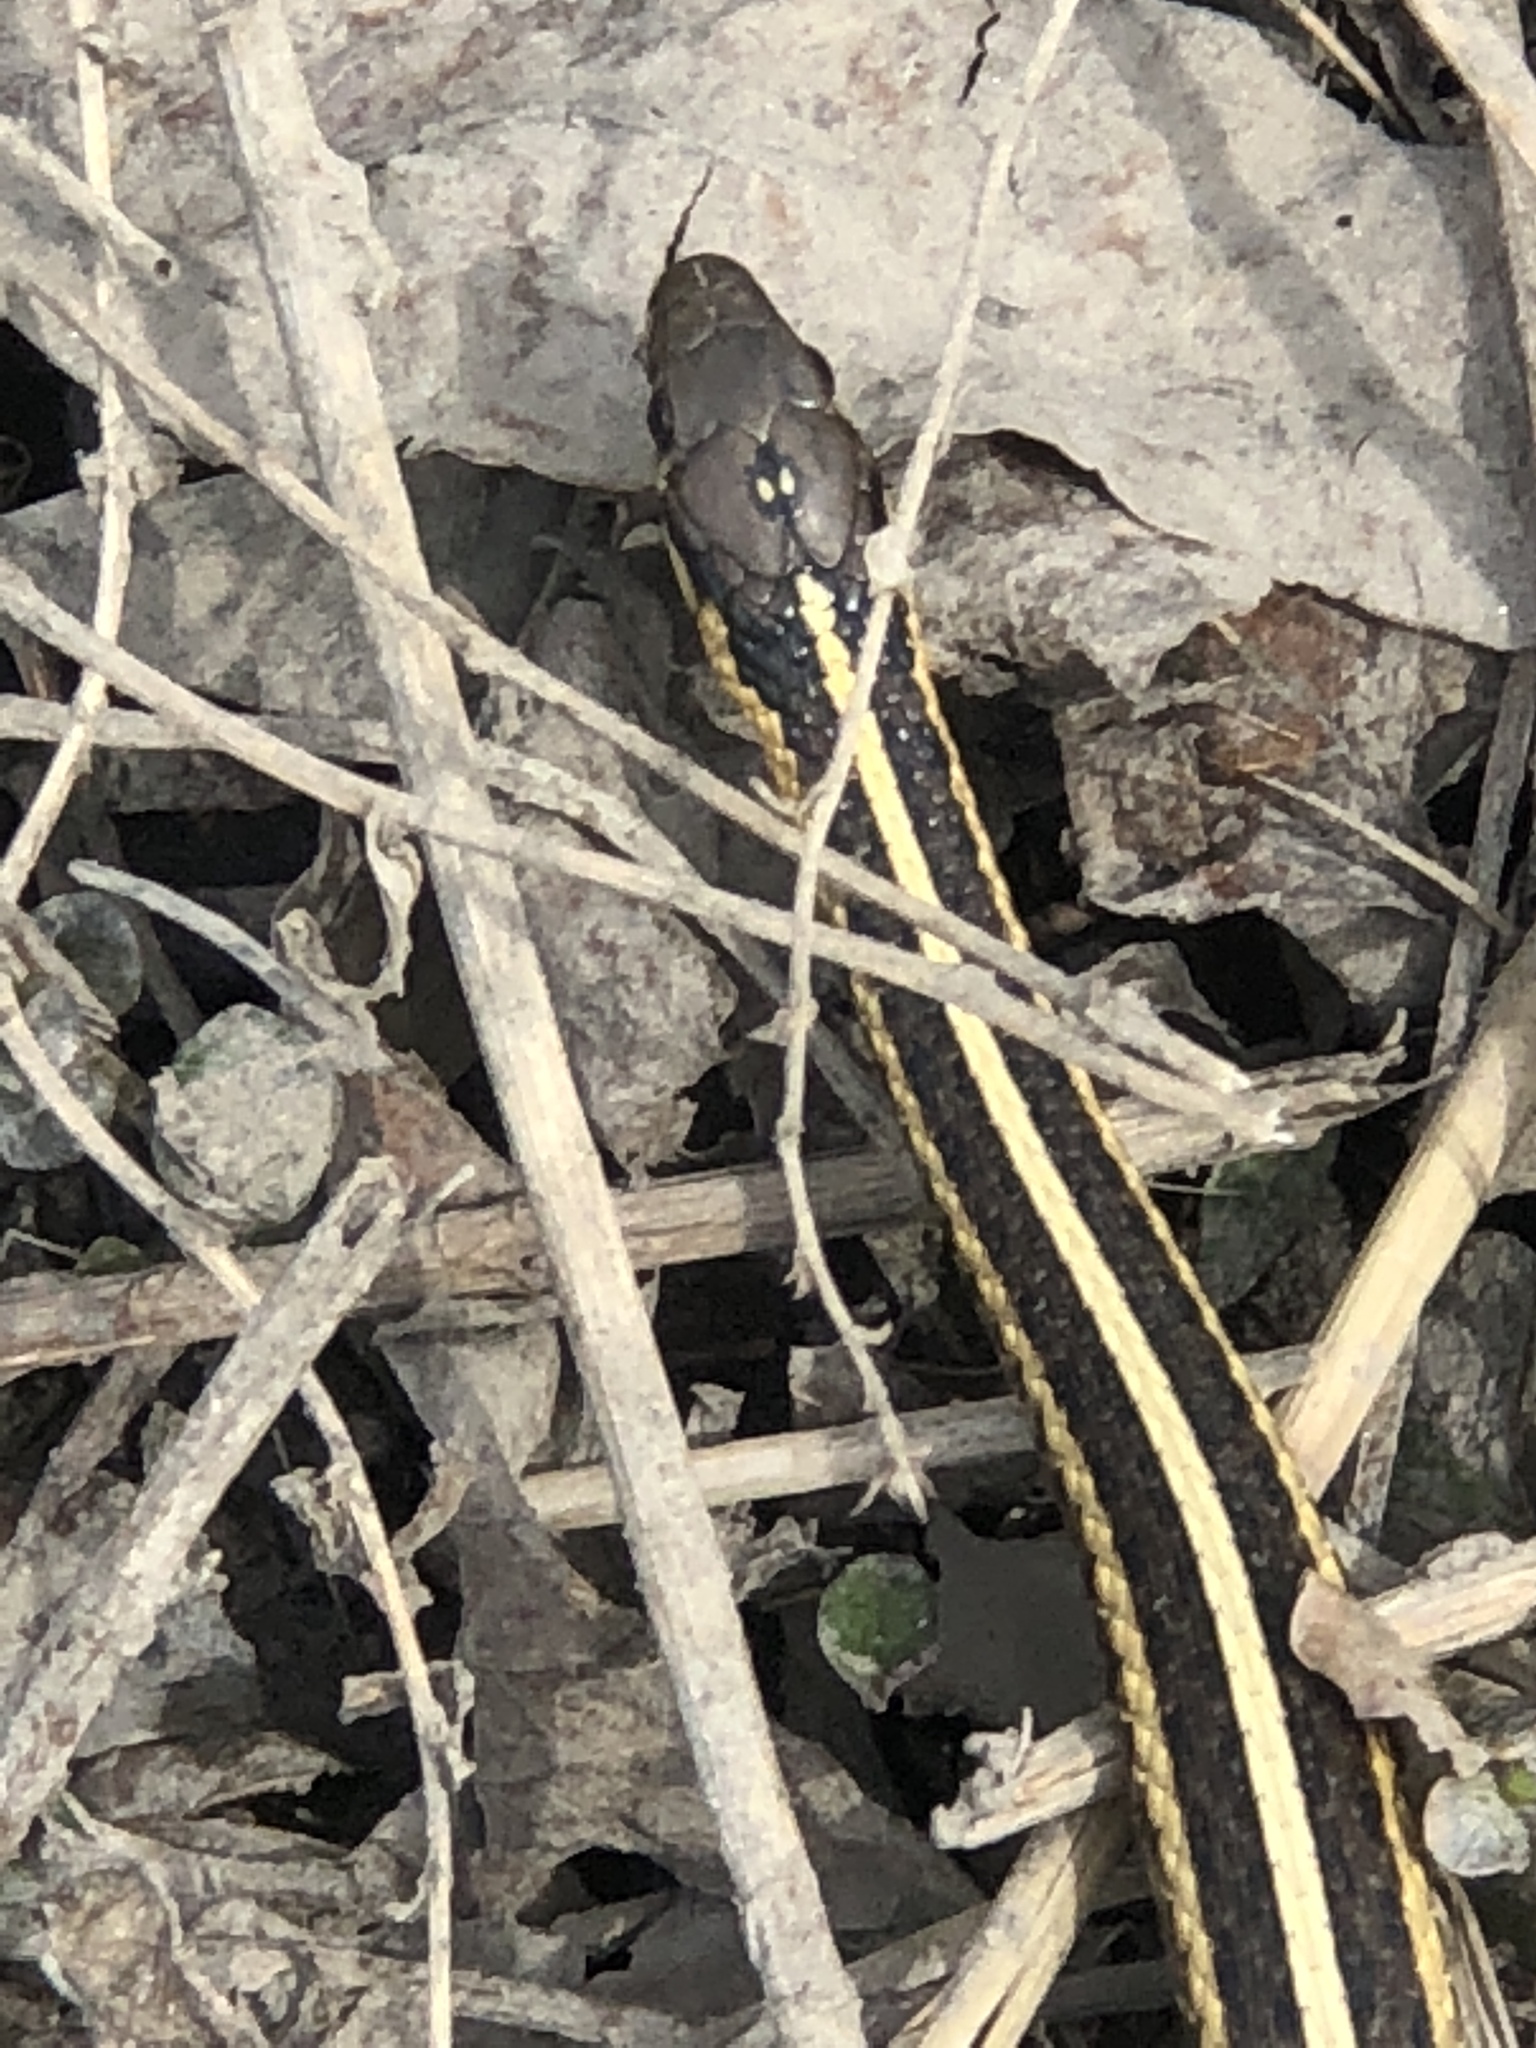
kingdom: Animalia
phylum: Chordata
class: Squamata
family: Colubridae
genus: Thamnophis
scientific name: Thamnophis butleri
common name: Butler's garter snake
